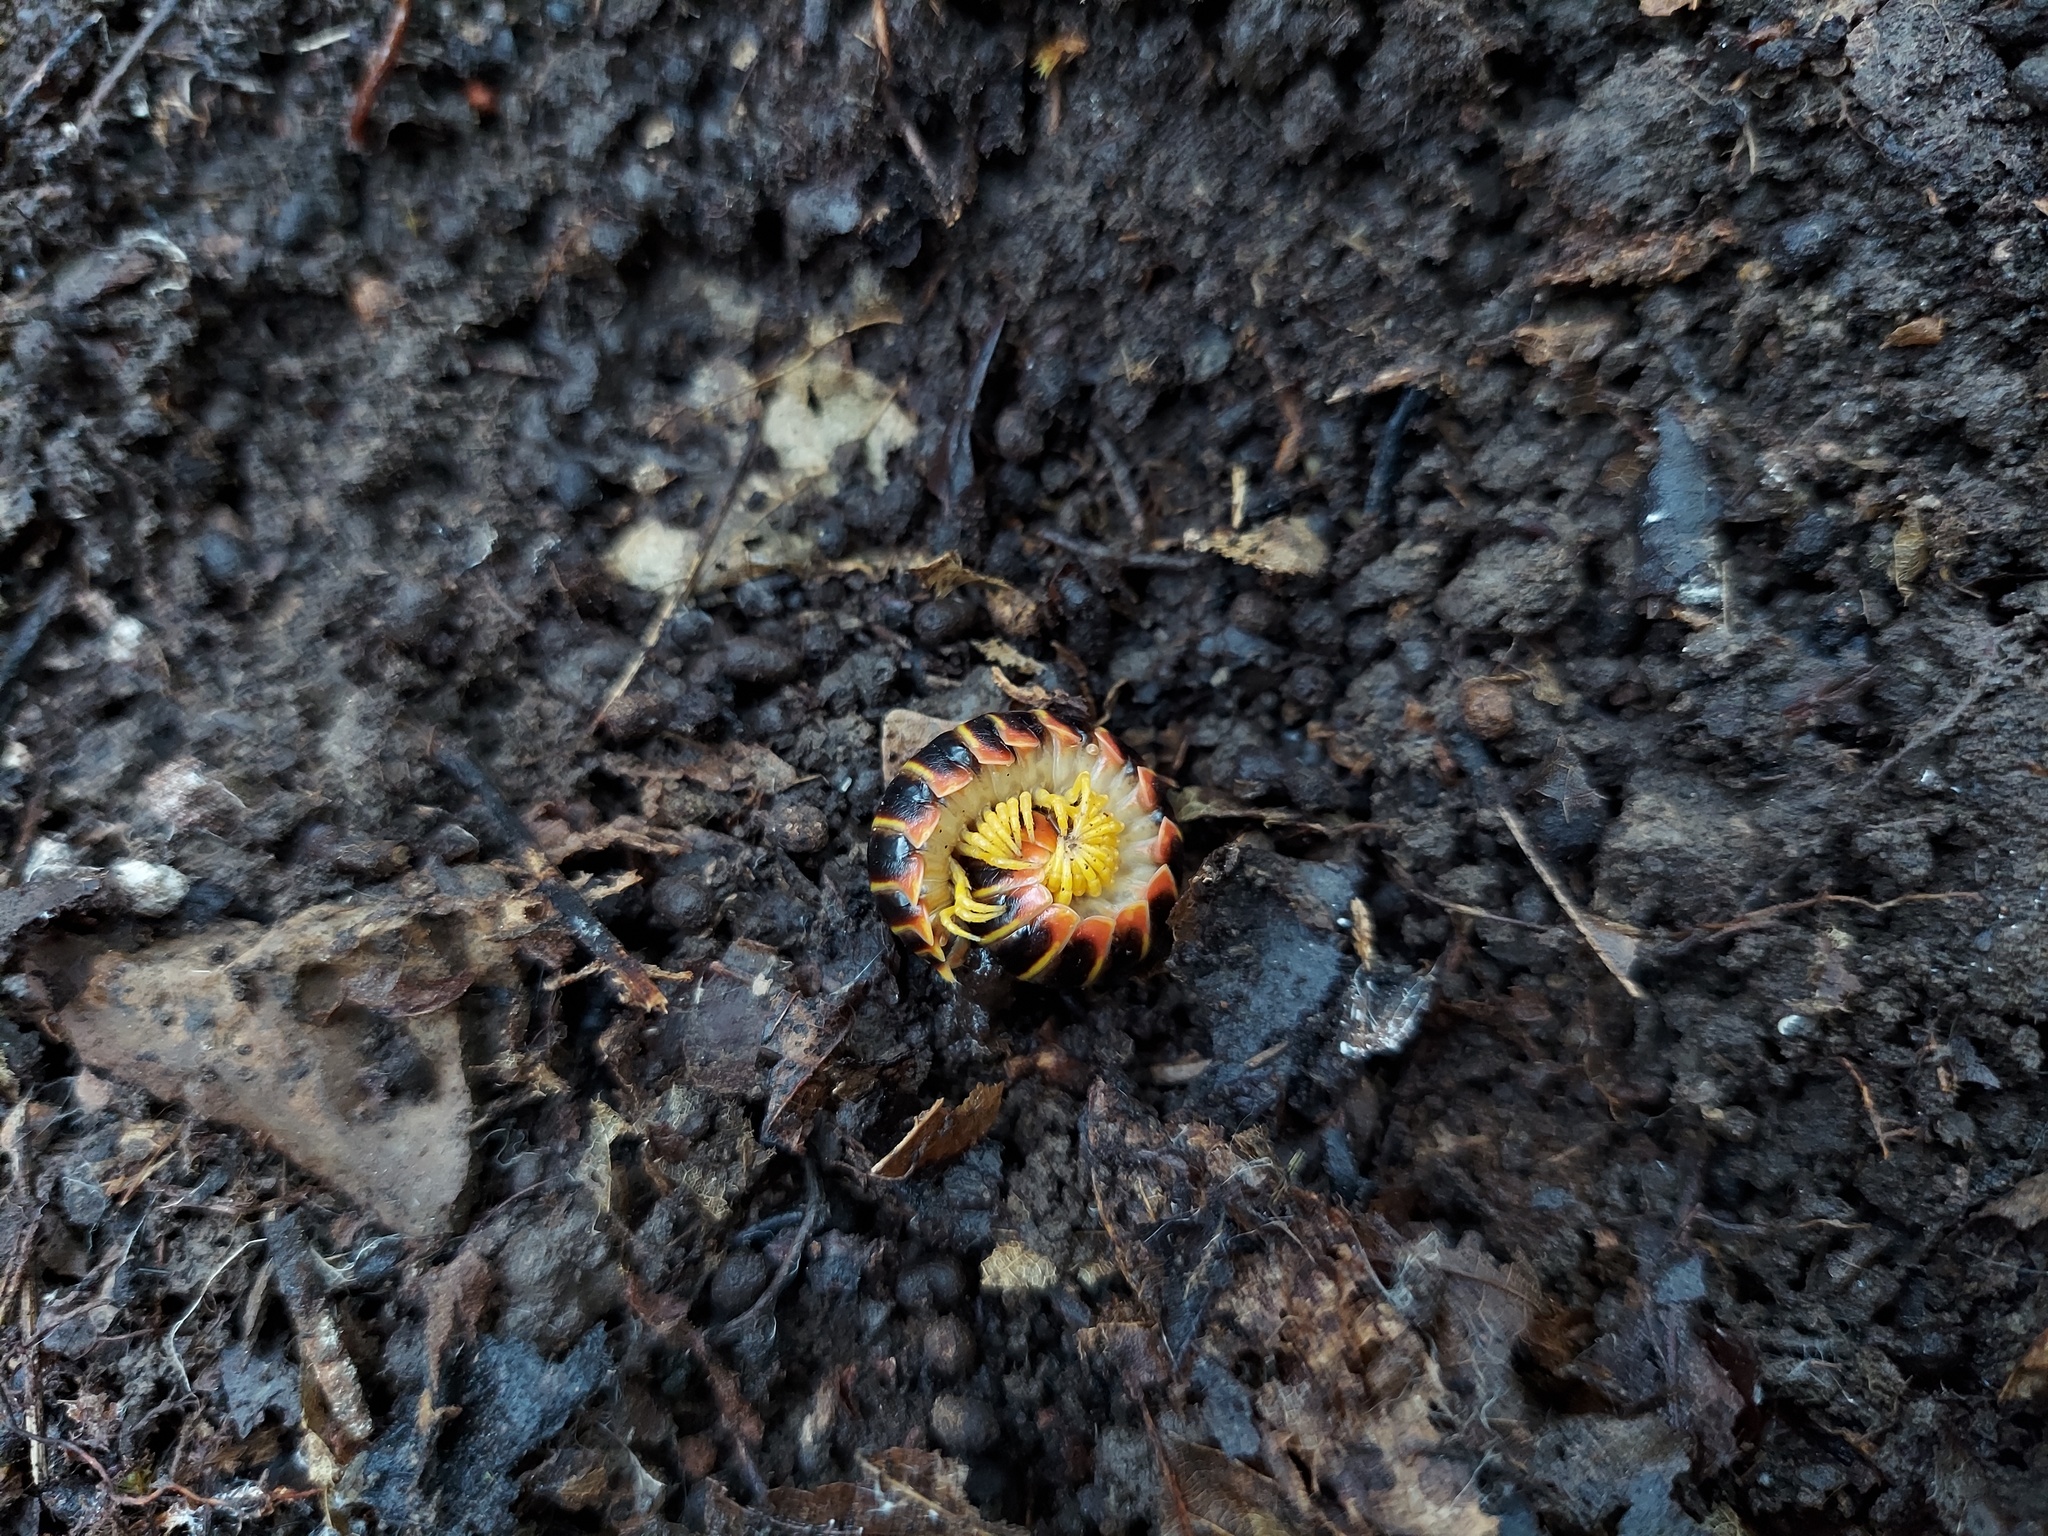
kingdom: Animalia
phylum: Arthropoda
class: Diplopoda
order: Polydesmida
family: Xystodesmidae
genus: Apheloria
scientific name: Apheloria virginiensis
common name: Black-and-gold flat millipede
